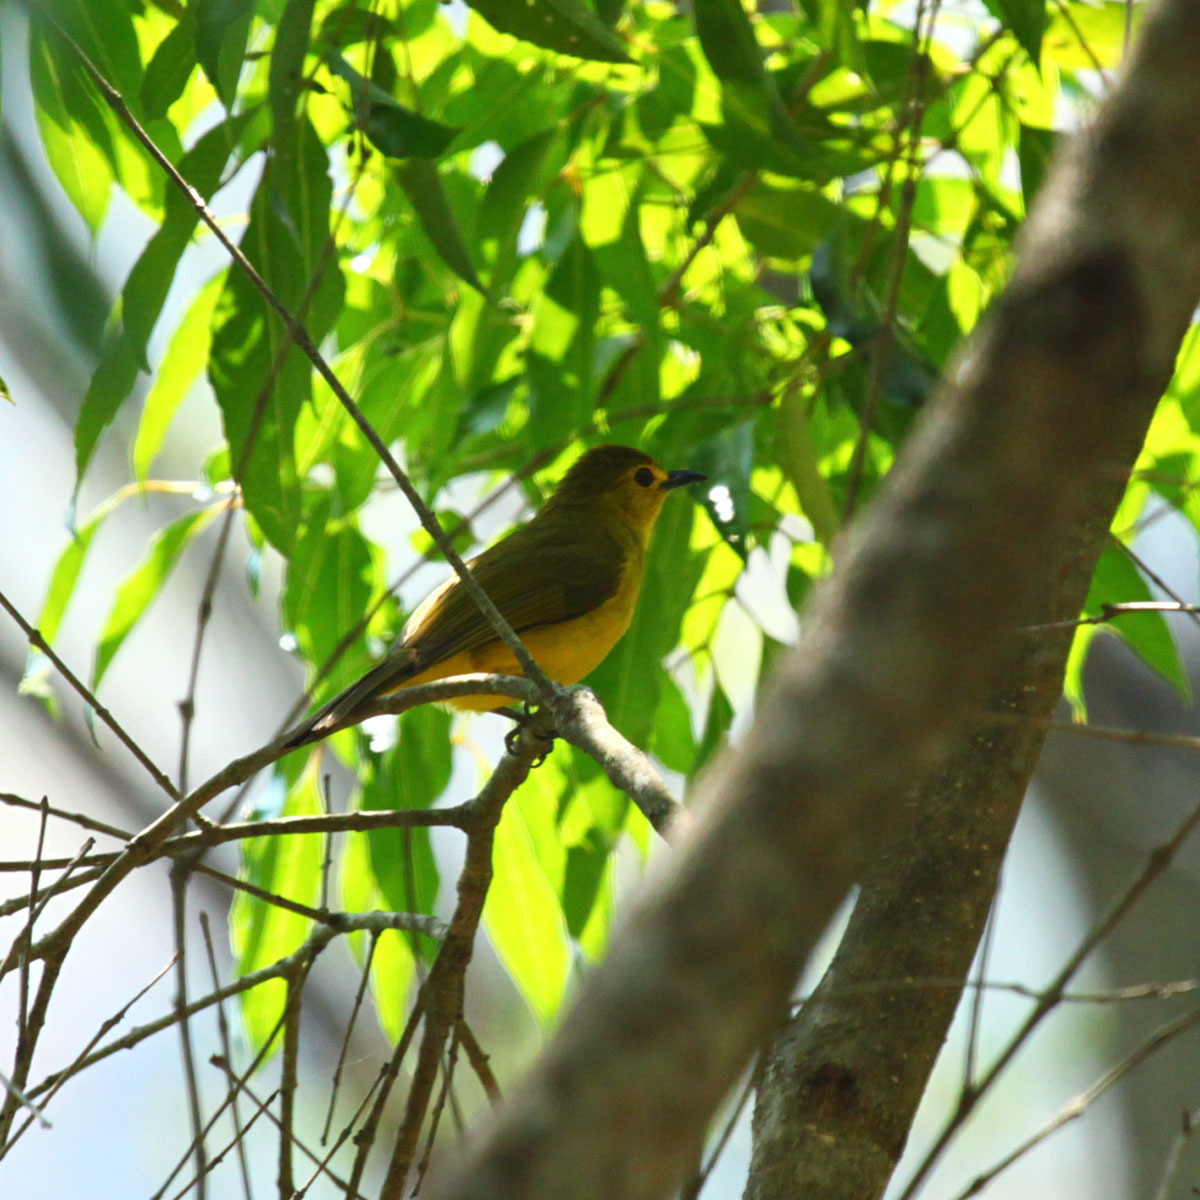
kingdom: Animalia
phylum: Chordata
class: Aves
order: Passeriformes
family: Pycnonotidae
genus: Acritillas
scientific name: Acritillas indica
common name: Yellow-browed bulbul
